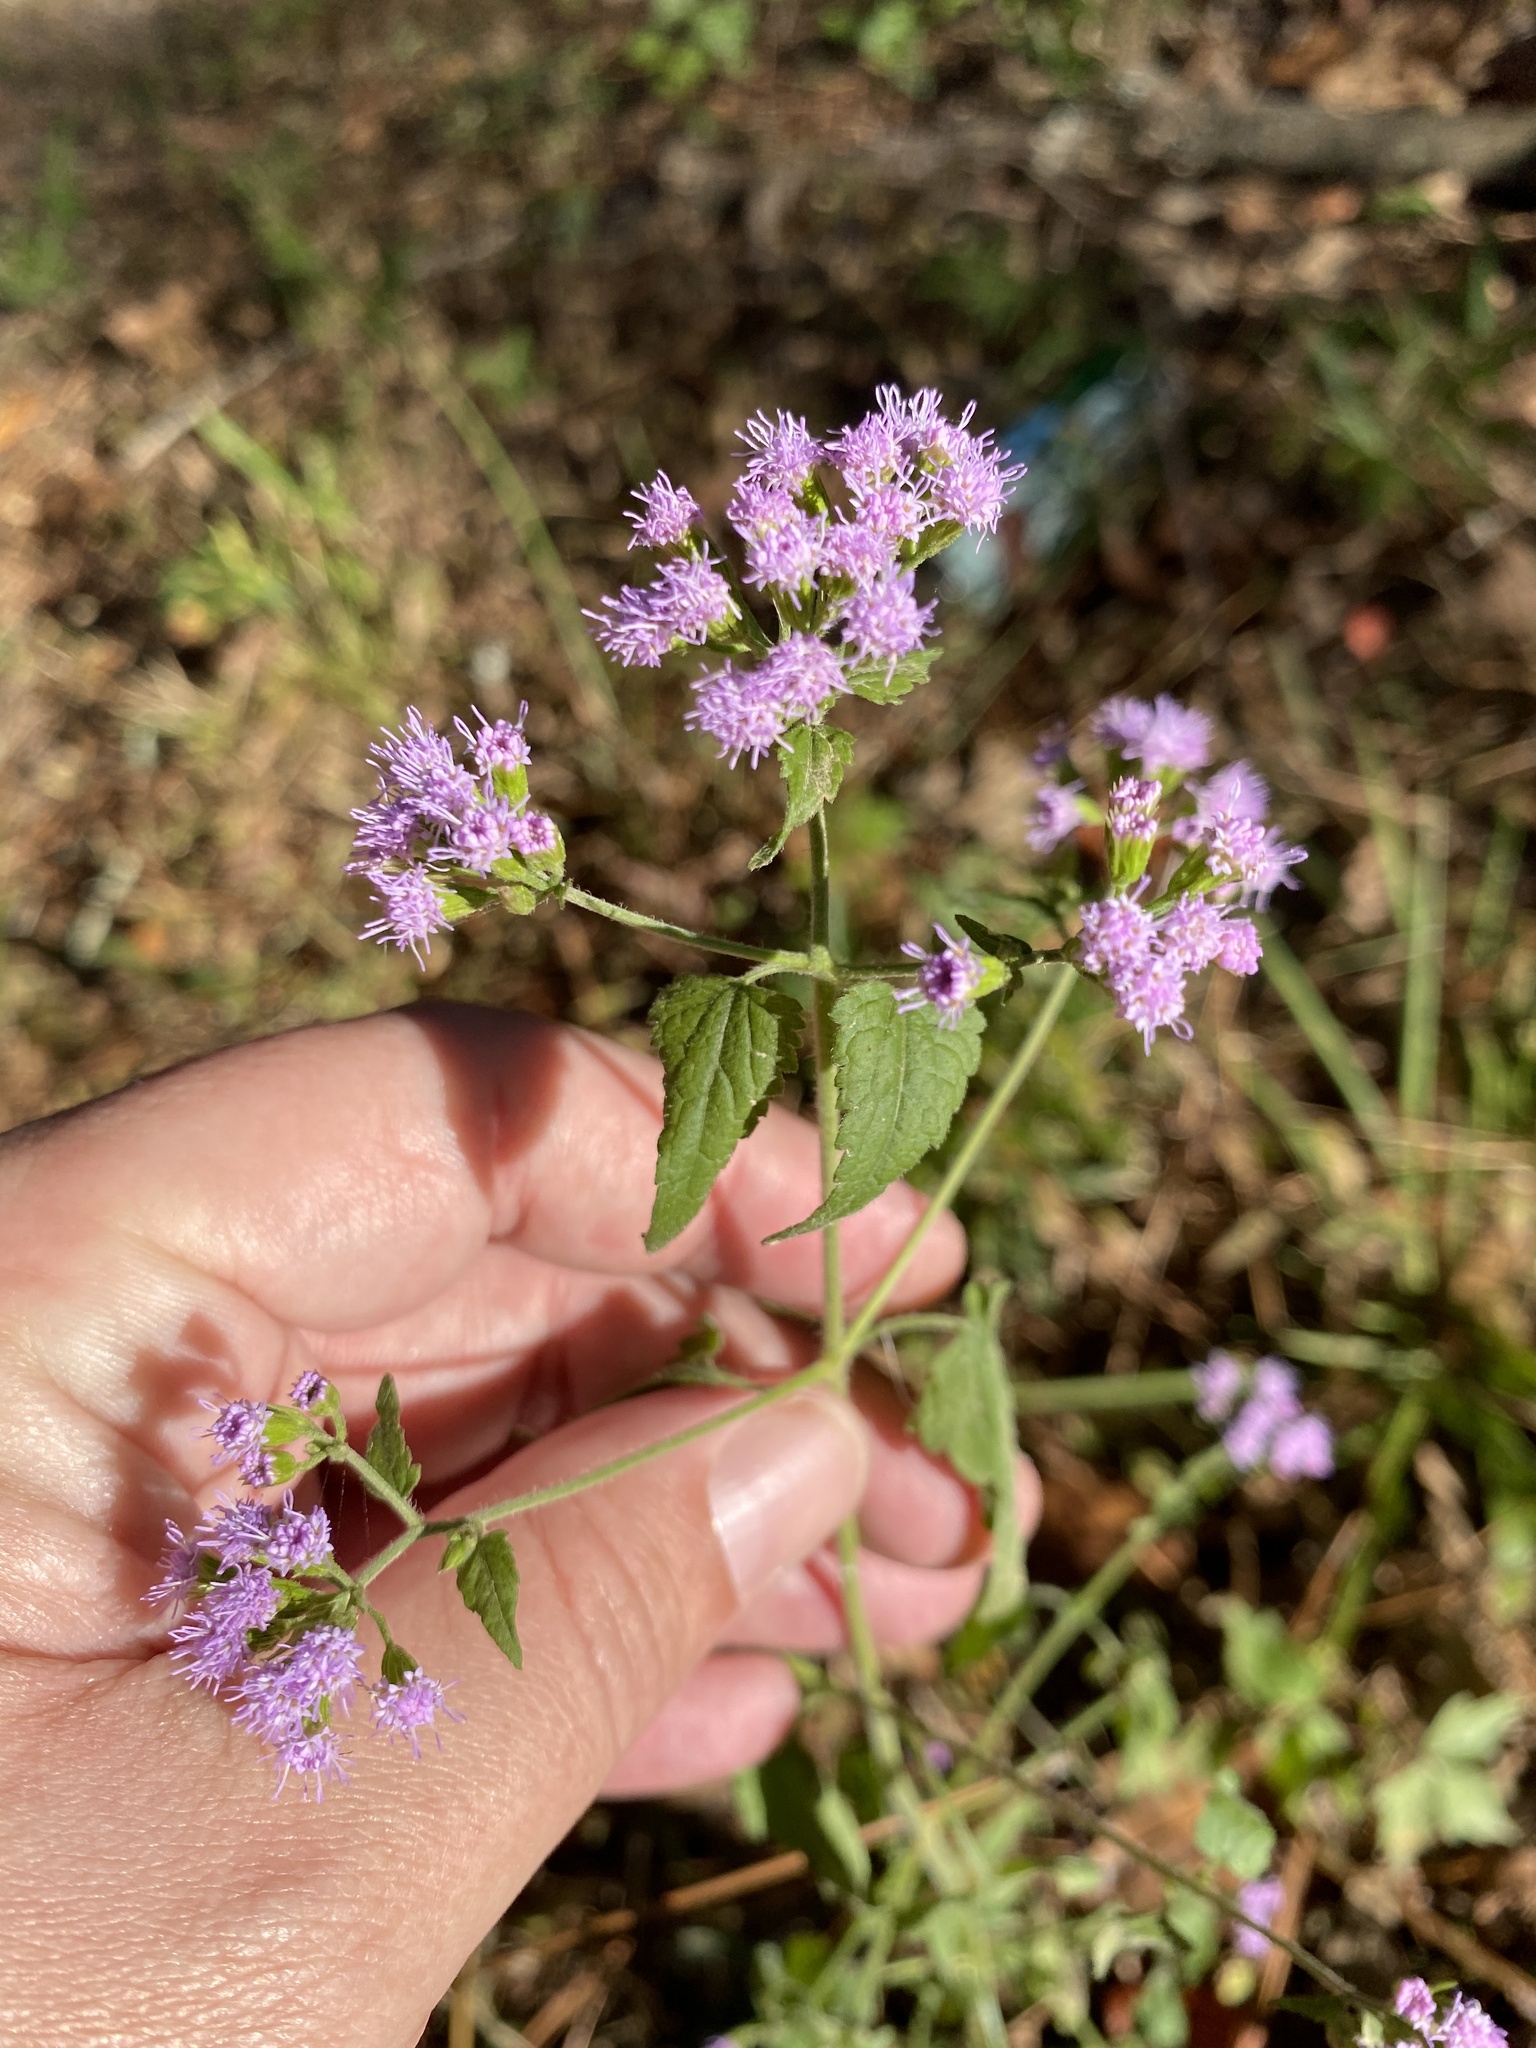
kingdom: Plantae
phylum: Tracheophyta
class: Magnoliopsida
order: Asterales
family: Asteraceae
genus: Fleischmannia
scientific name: Fleischmannia incarnata
